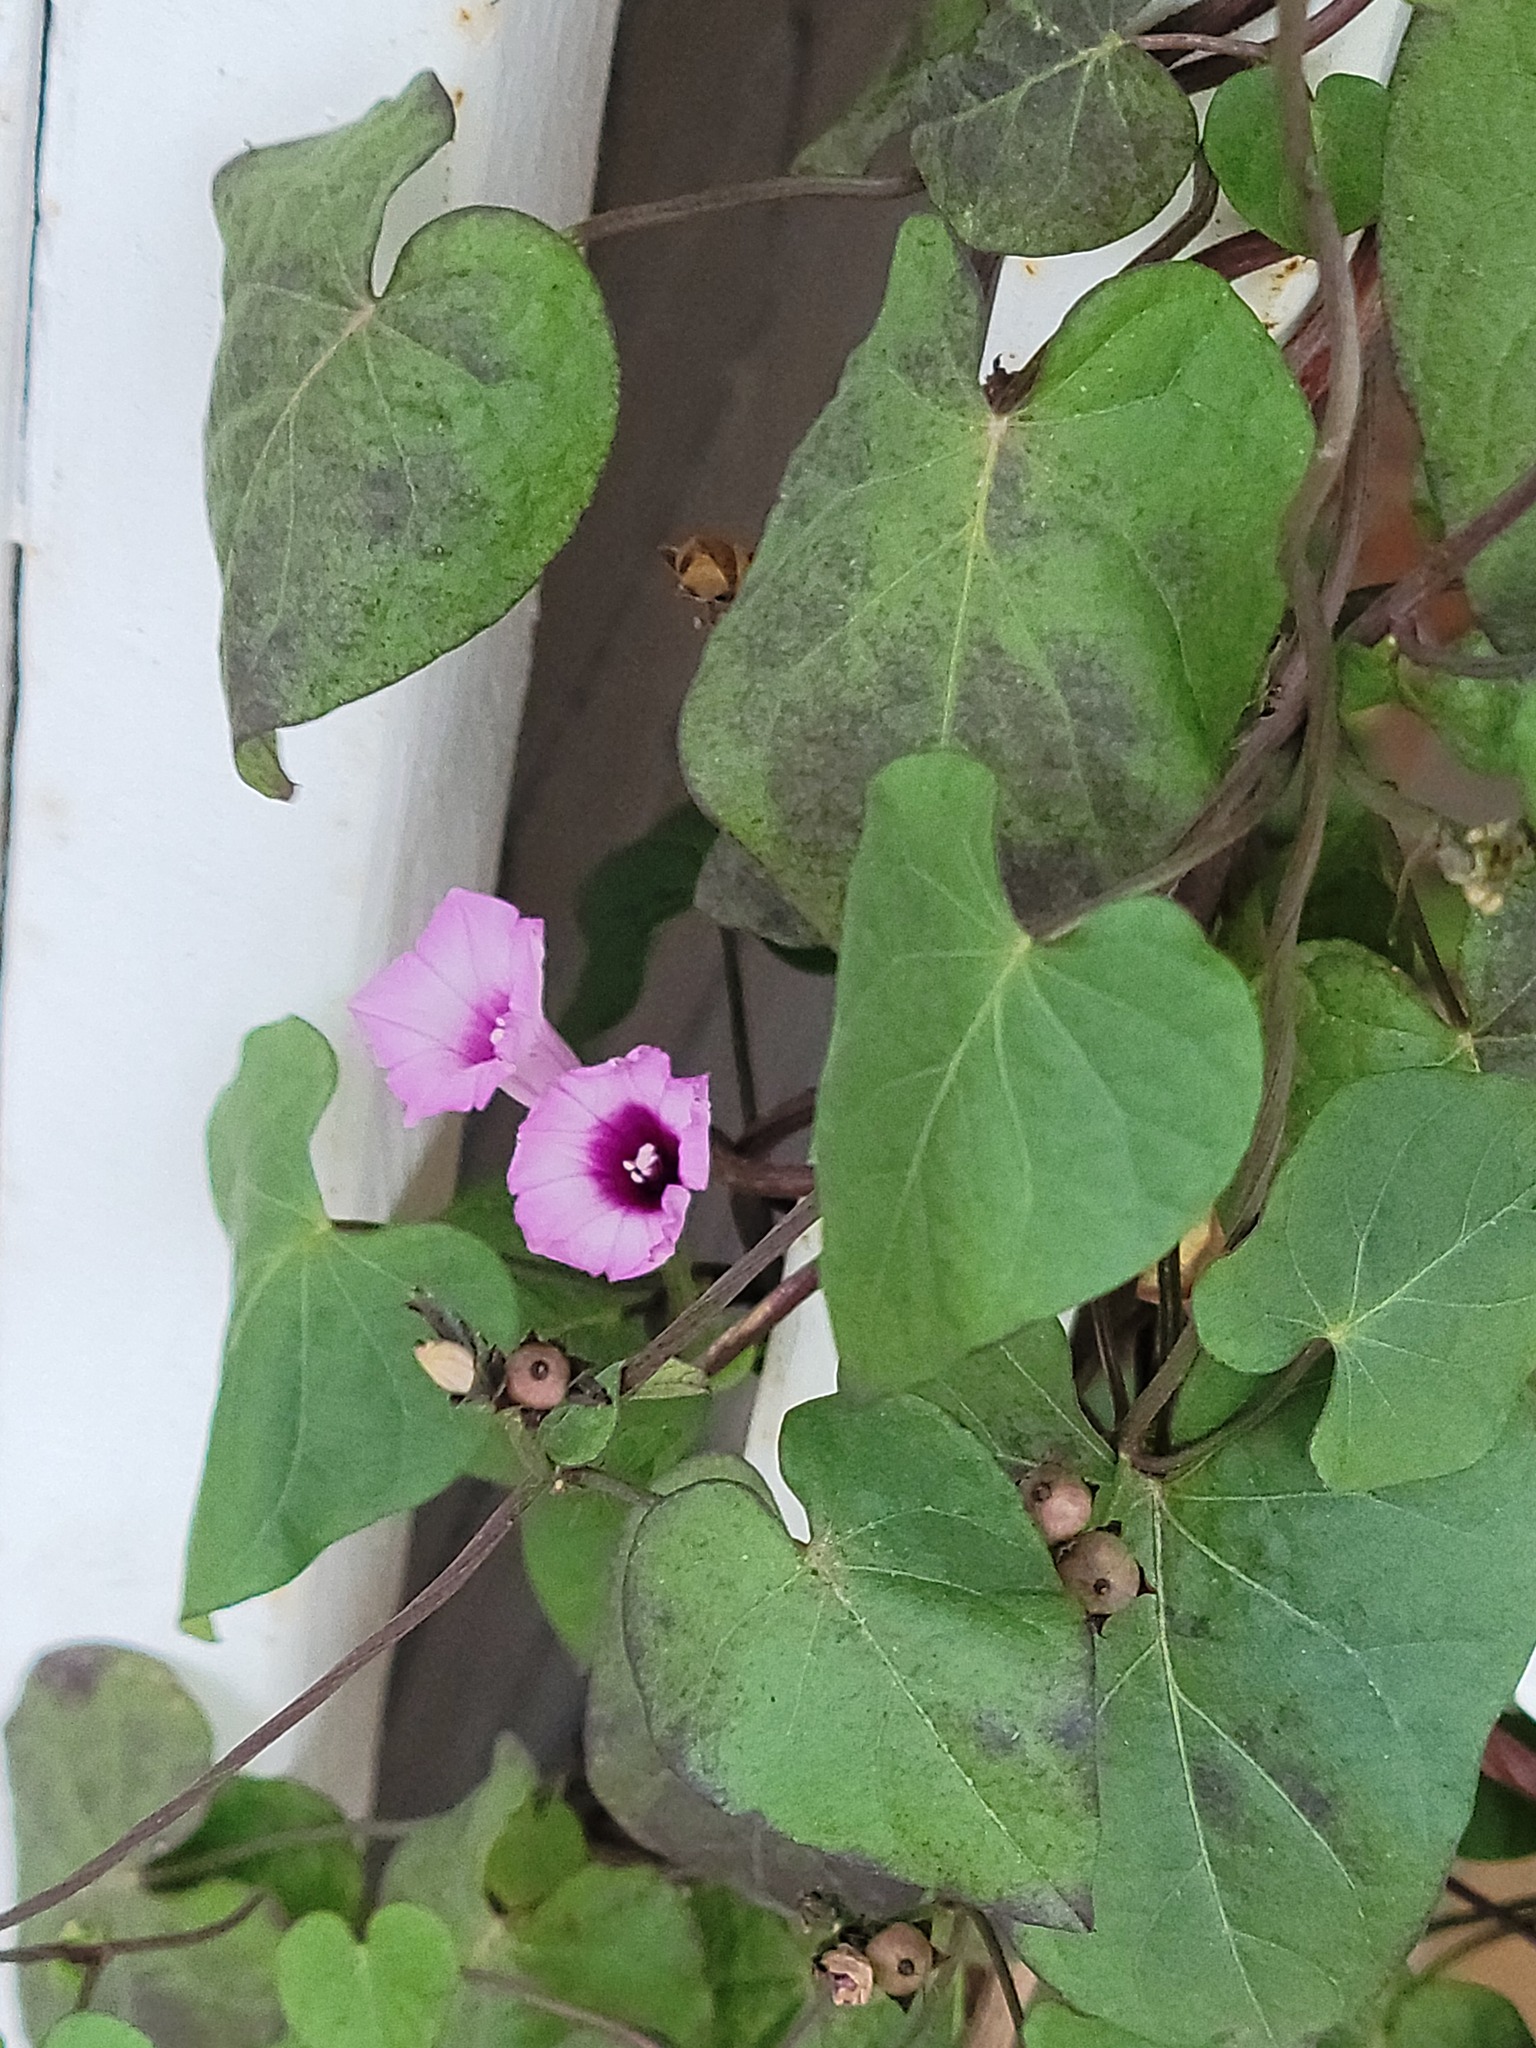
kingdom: Plantae
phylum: Tracheophyta
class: Magnoliopsida
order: Solanales
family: Convolvulaceae
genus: Ipomoea
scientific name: Ipomoea triloba
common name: Little-bell
